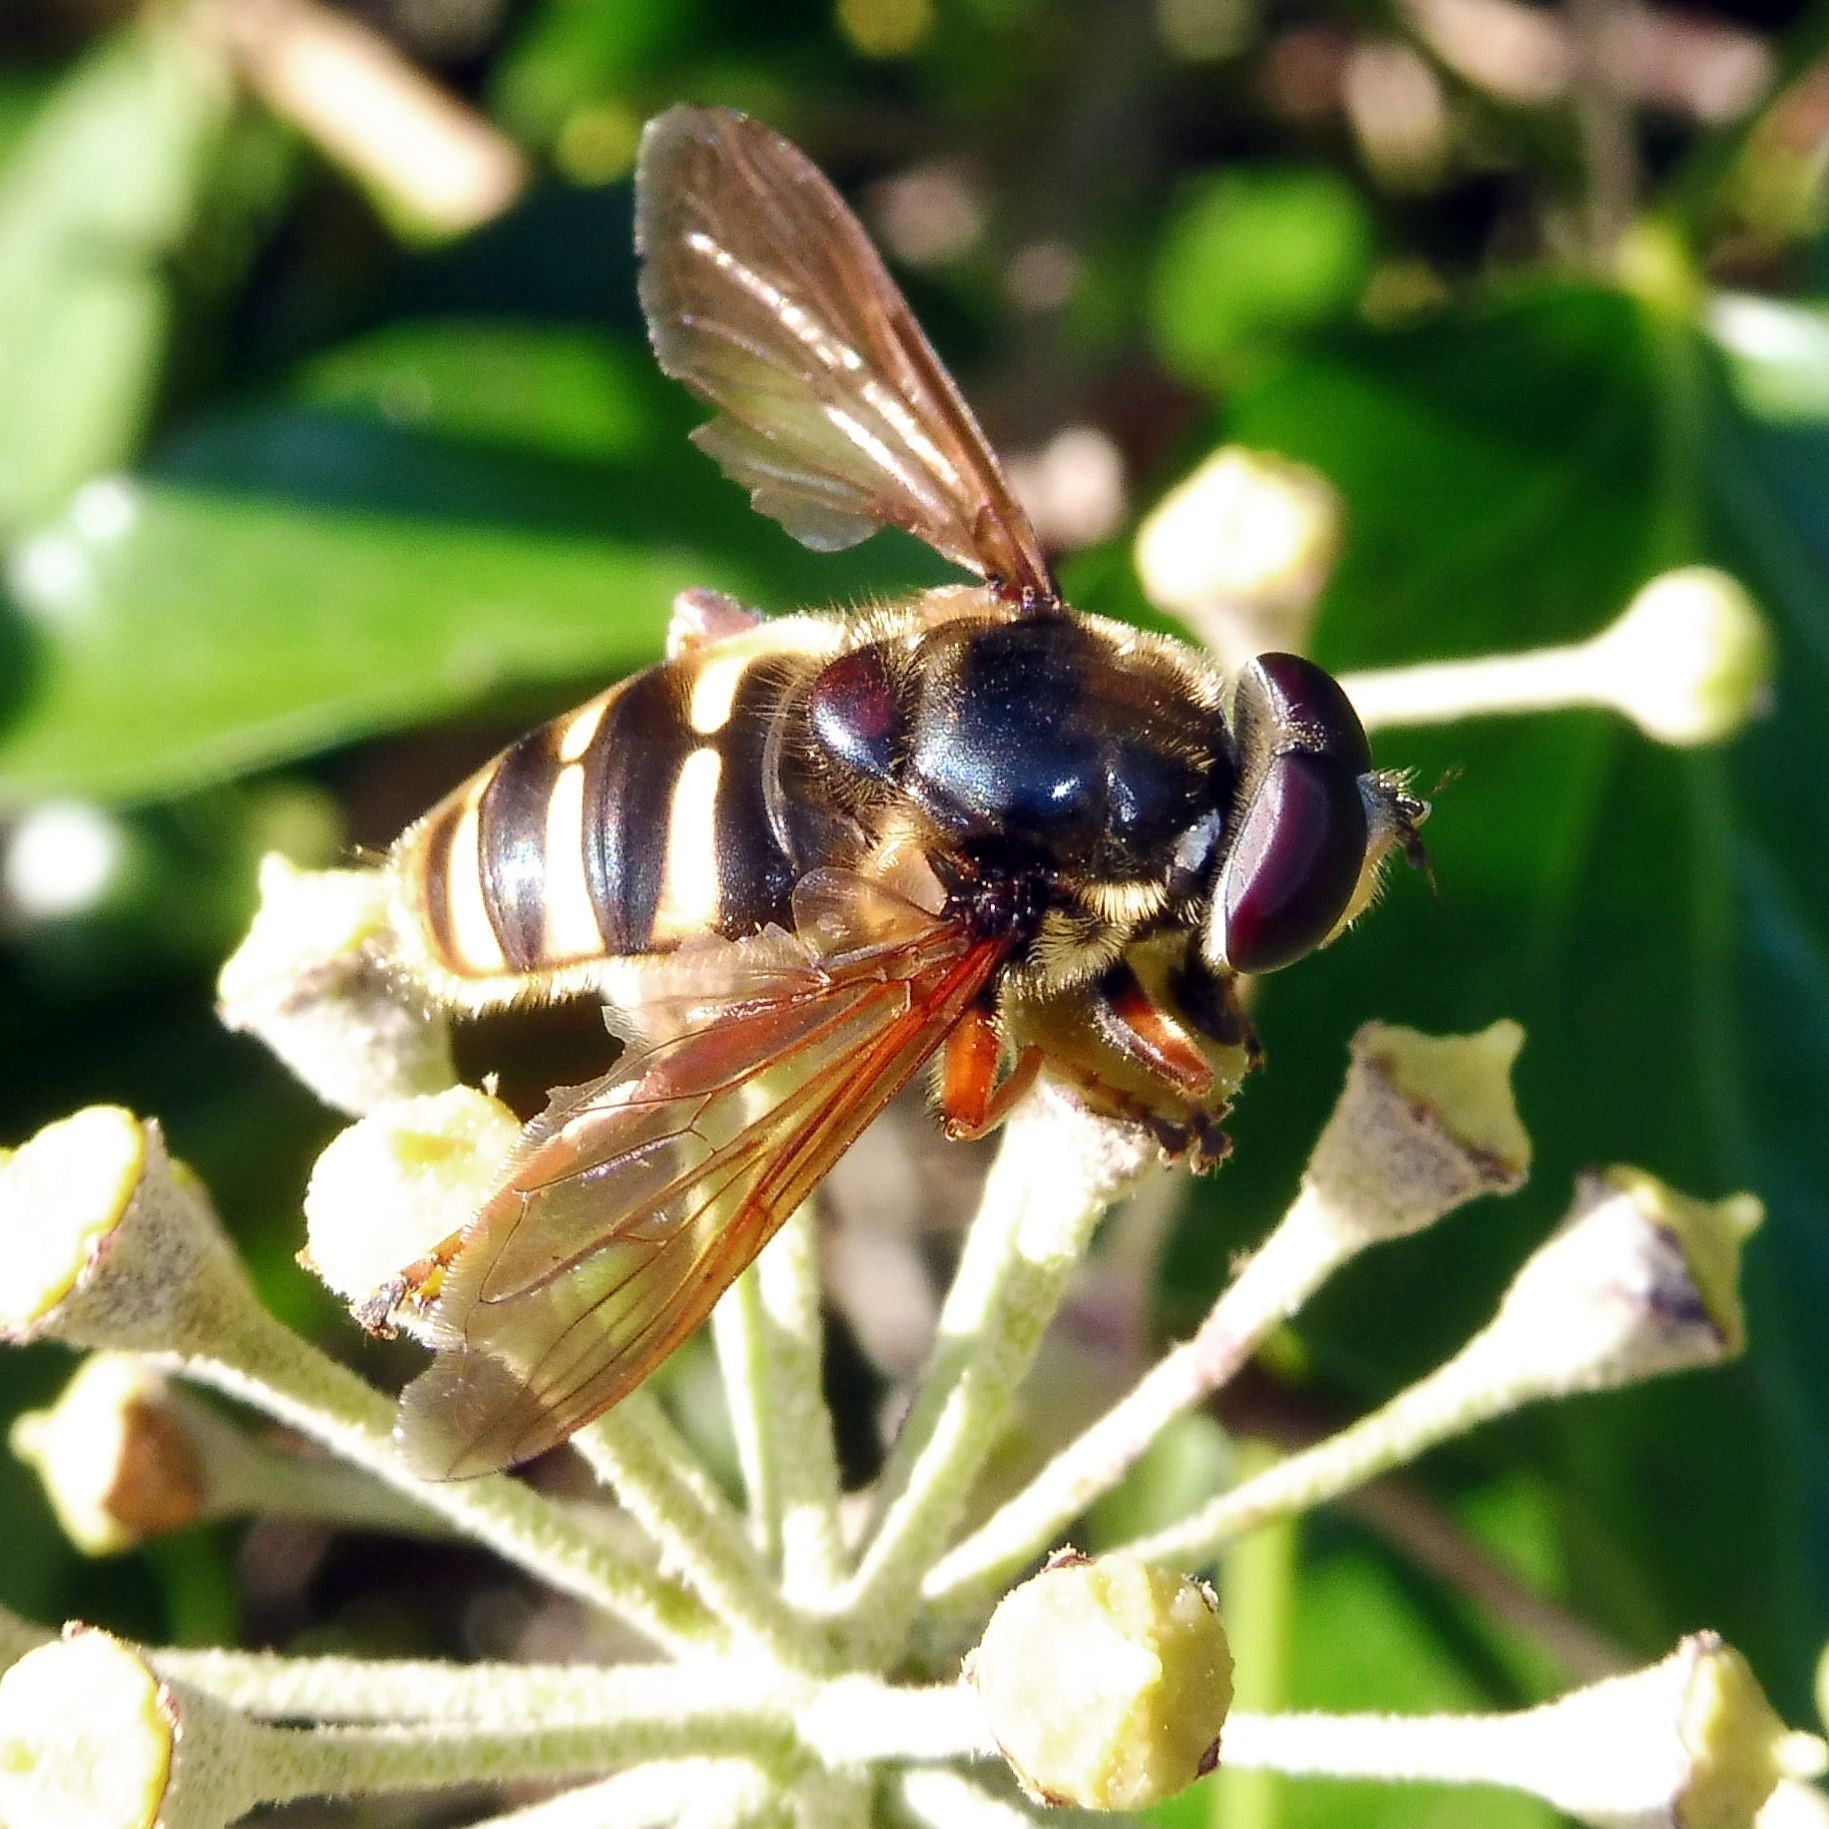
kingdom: Animalia
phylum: Arthropoda
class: Insecta
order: Diptera
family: Syrphidae
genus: Sericomyia
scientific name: Sericomyia silentis
